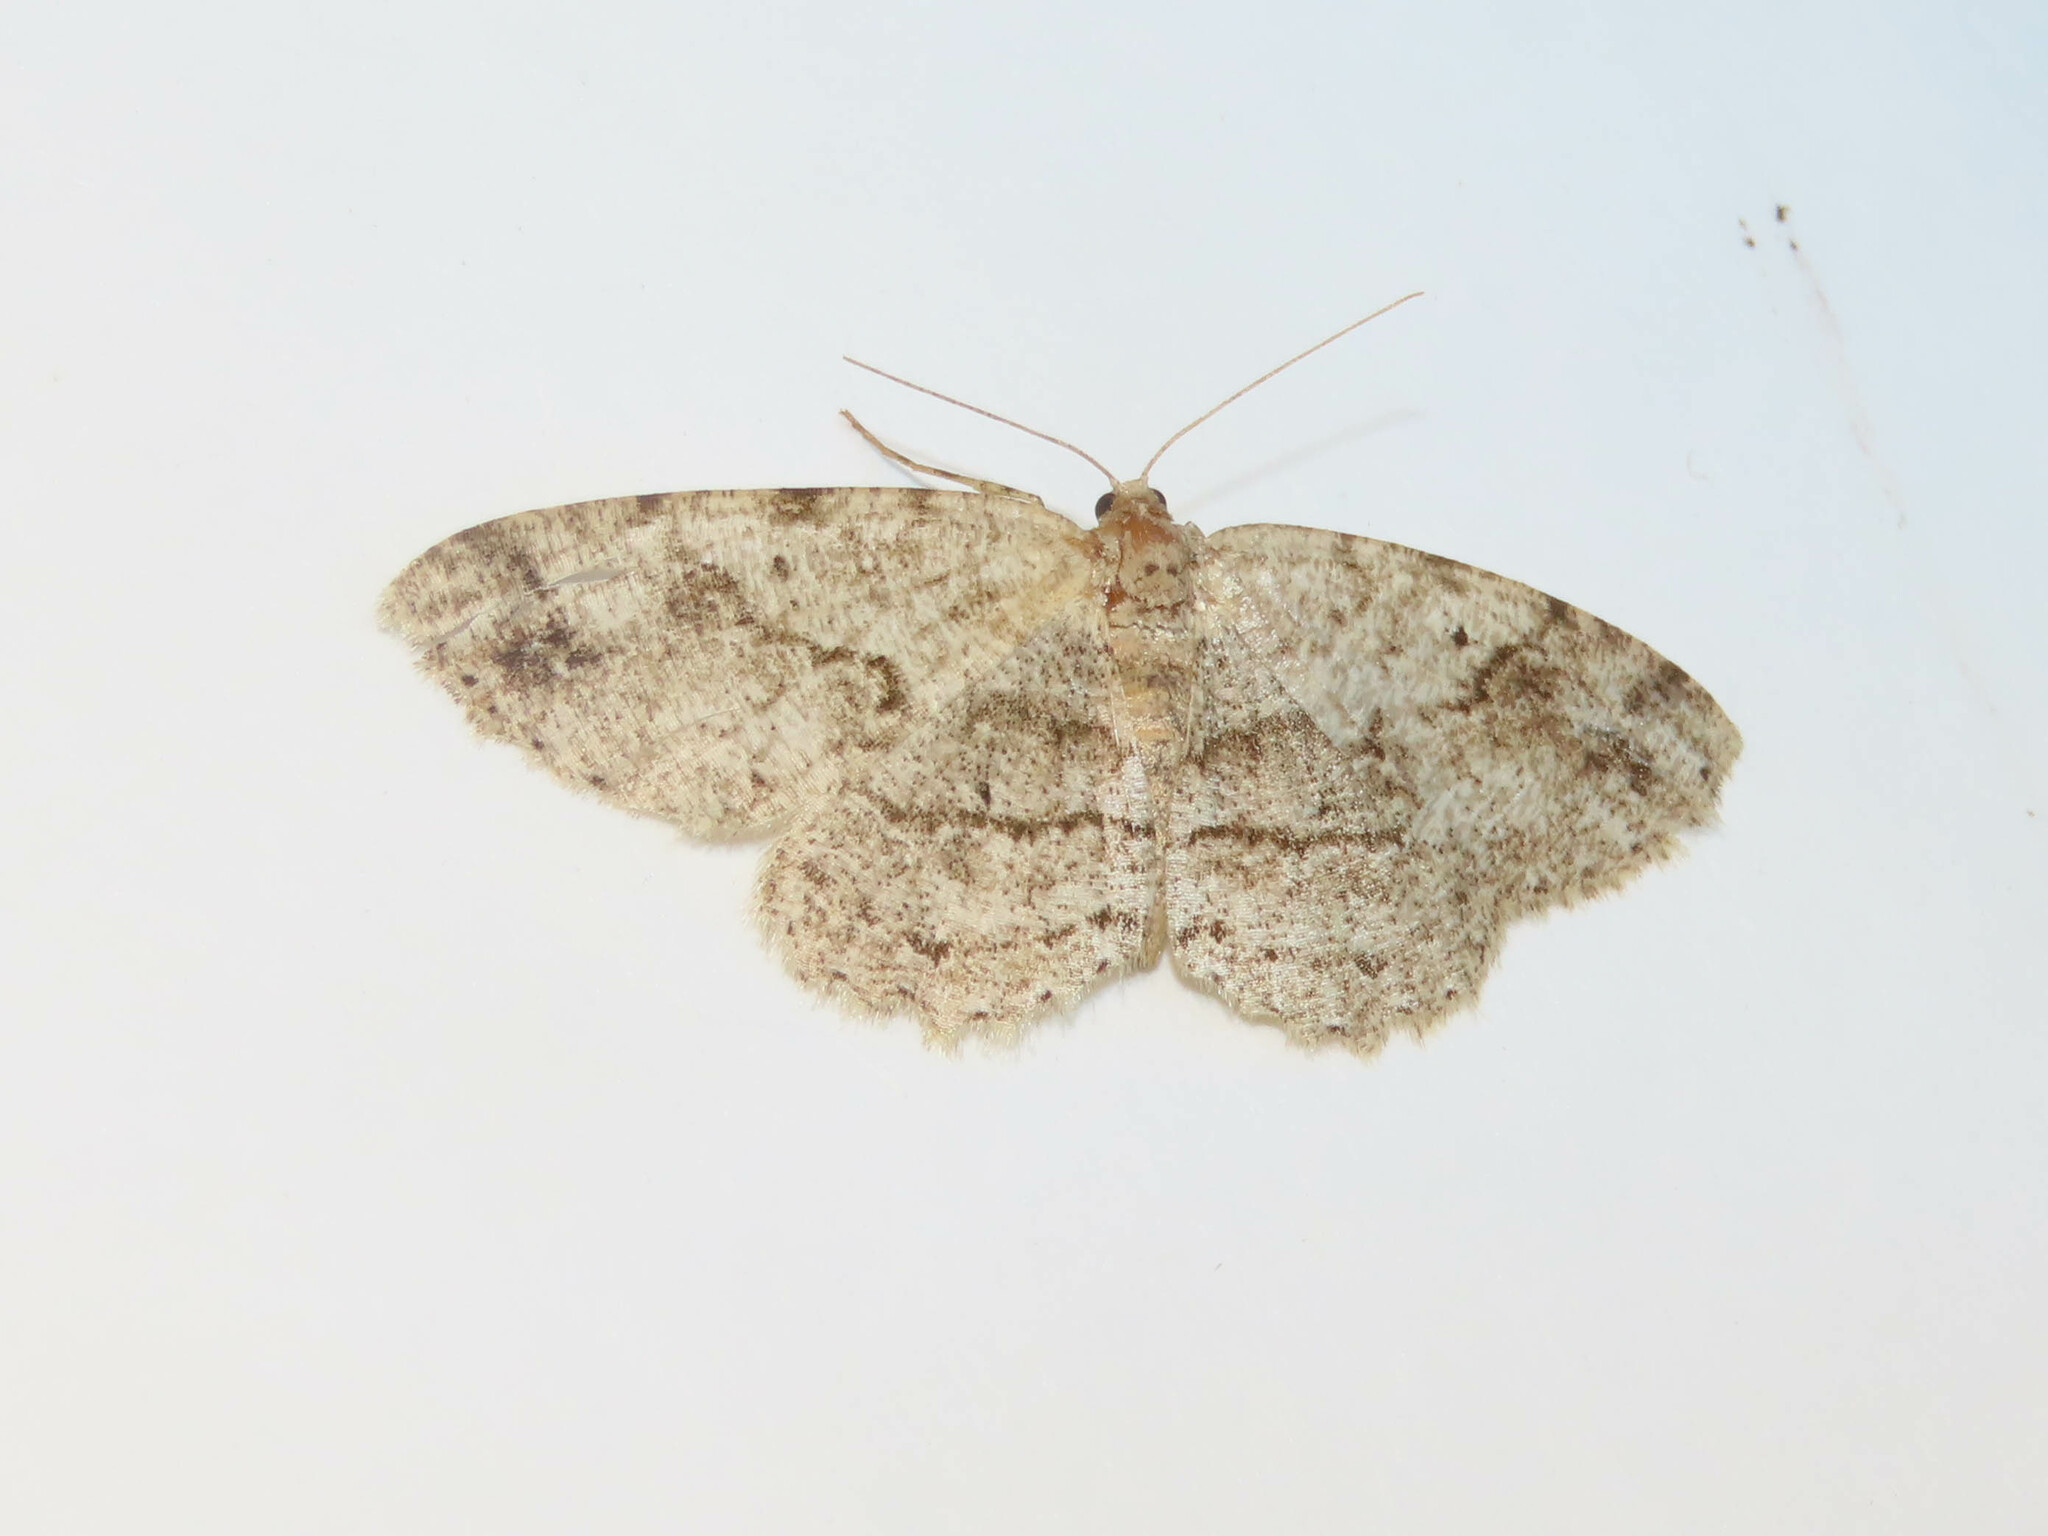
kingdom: Animalia
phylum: Arthropoda
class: Insecta
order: Lepidoptera
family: Geometridae
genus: Melanolophia
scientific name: Melanolophia canadaria
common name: Canadian melanolophia
